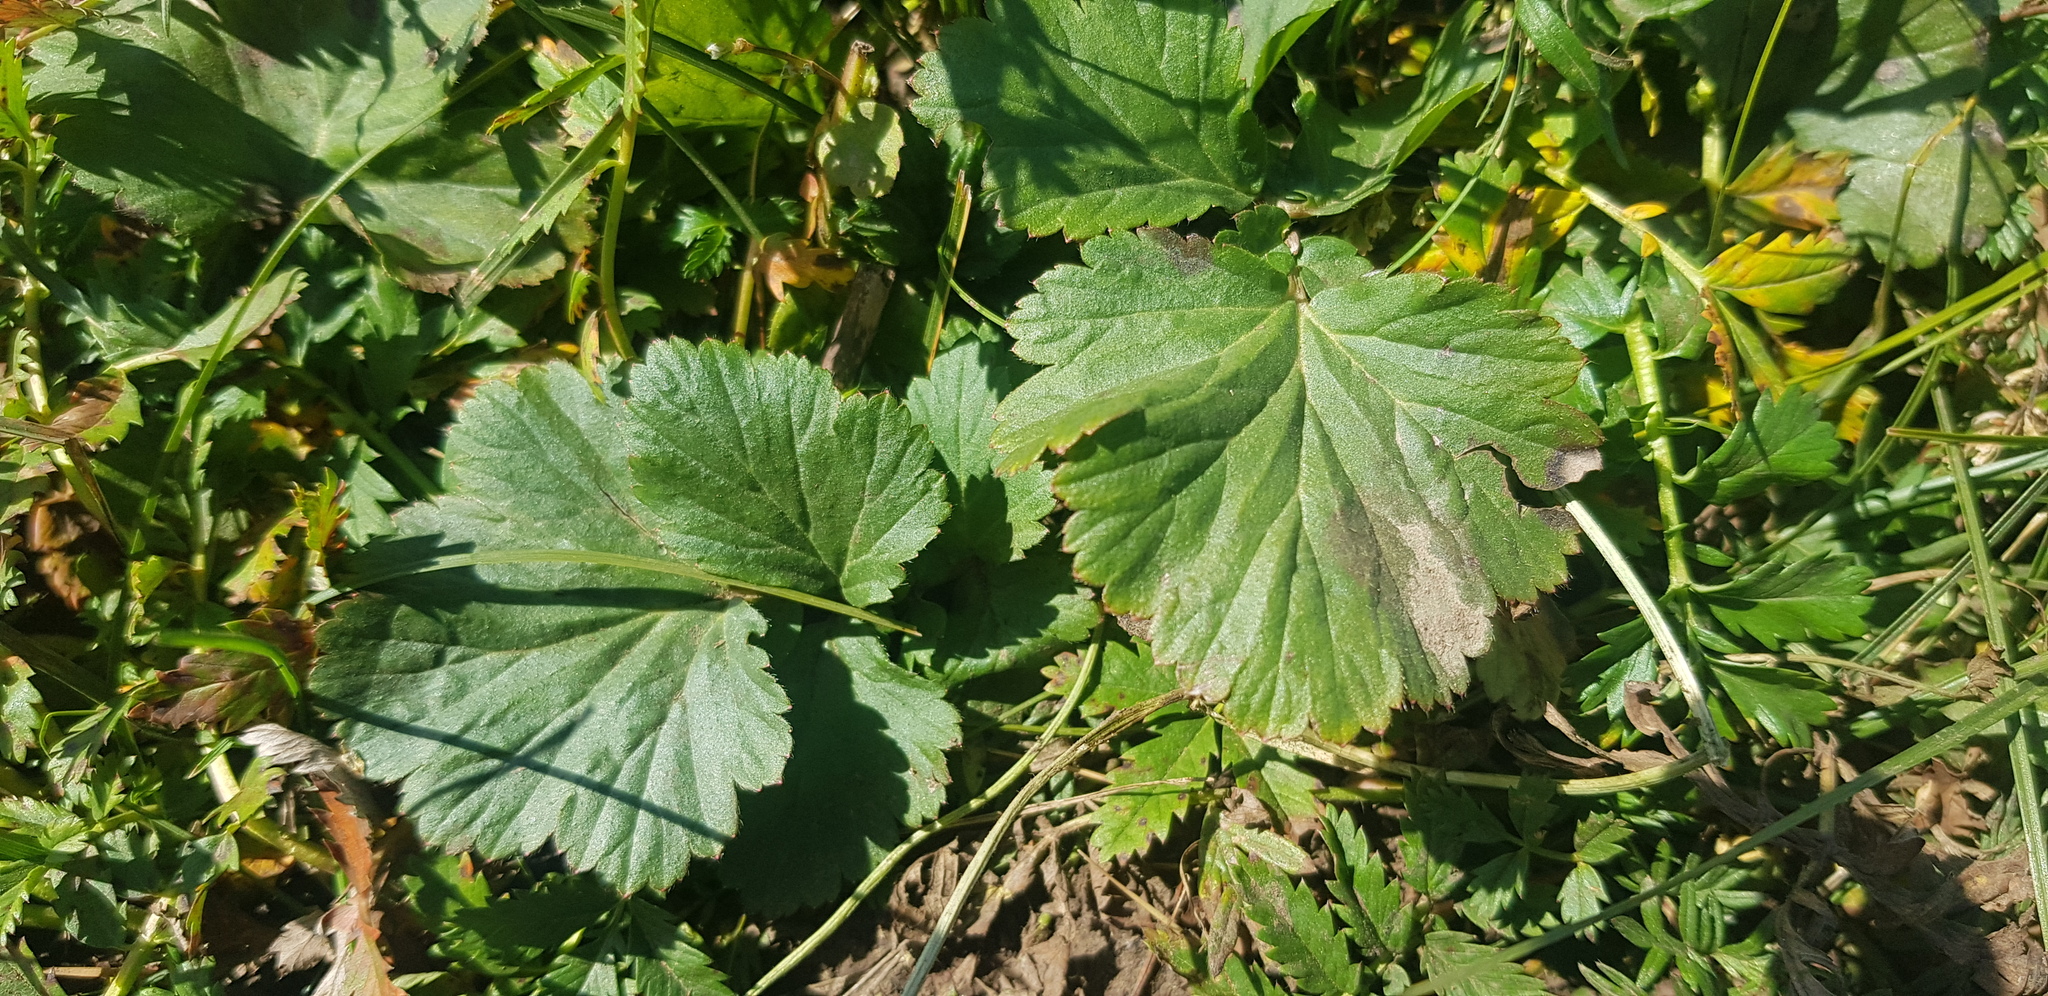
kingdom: Plantae
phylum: Tracheophyta
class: Magnoliopsida
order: Rosales
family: Rosaceae
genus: Geum
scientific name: Geum aleppicum
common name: Yellow avens
